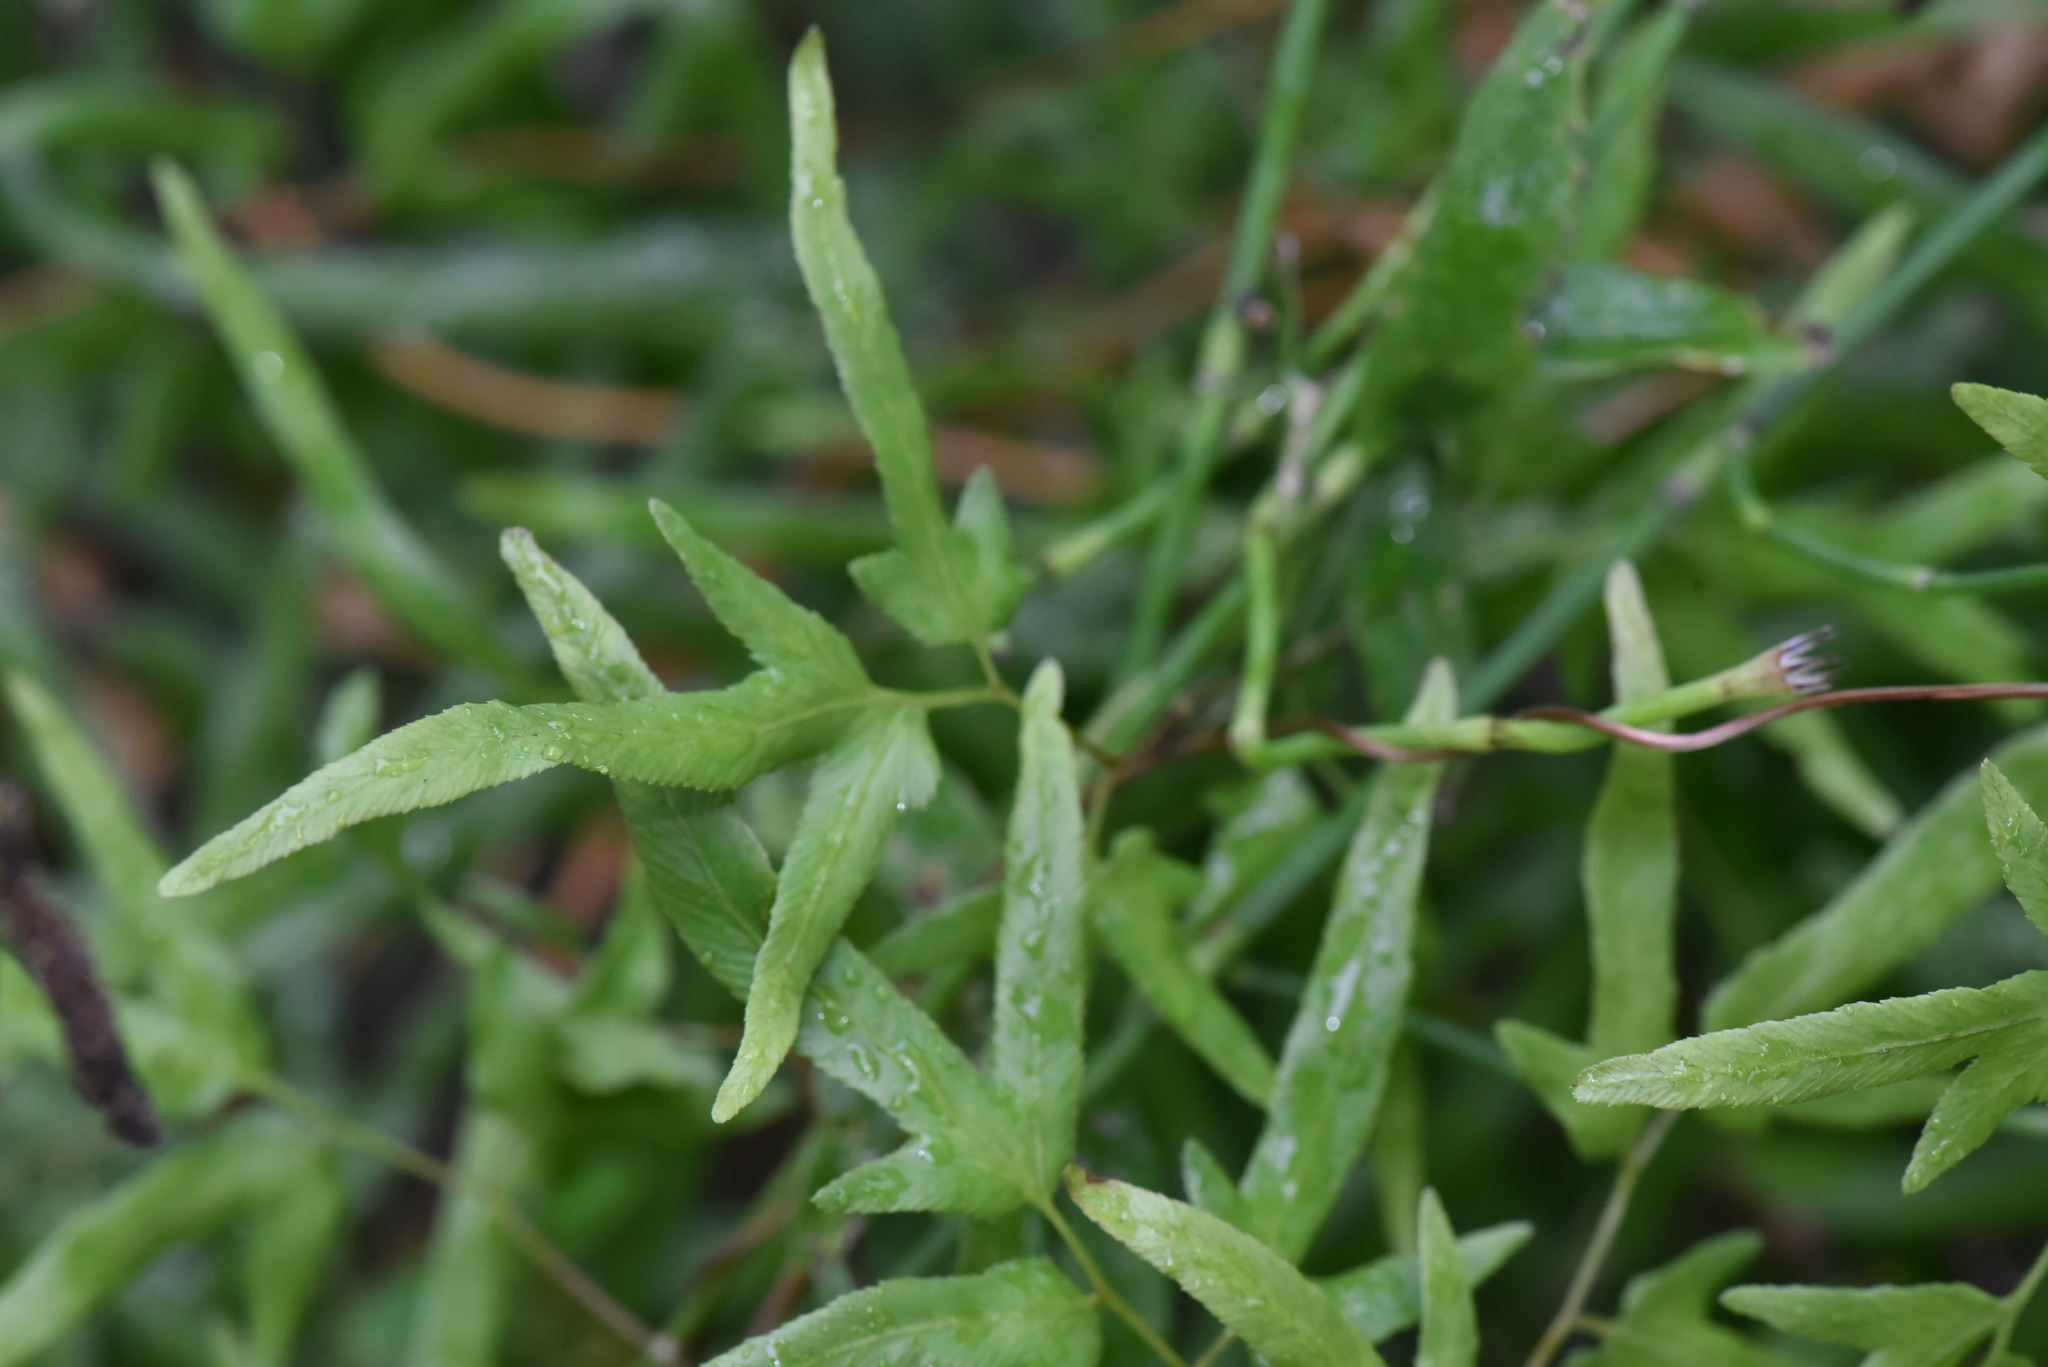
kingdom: Plantae
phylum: Tracheophyta
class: Polypodiopsida
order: Schizaeales
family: Lygodiaceae
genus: Lygodium
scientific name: Lygodium japonicum
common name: Japanese climbing fern
